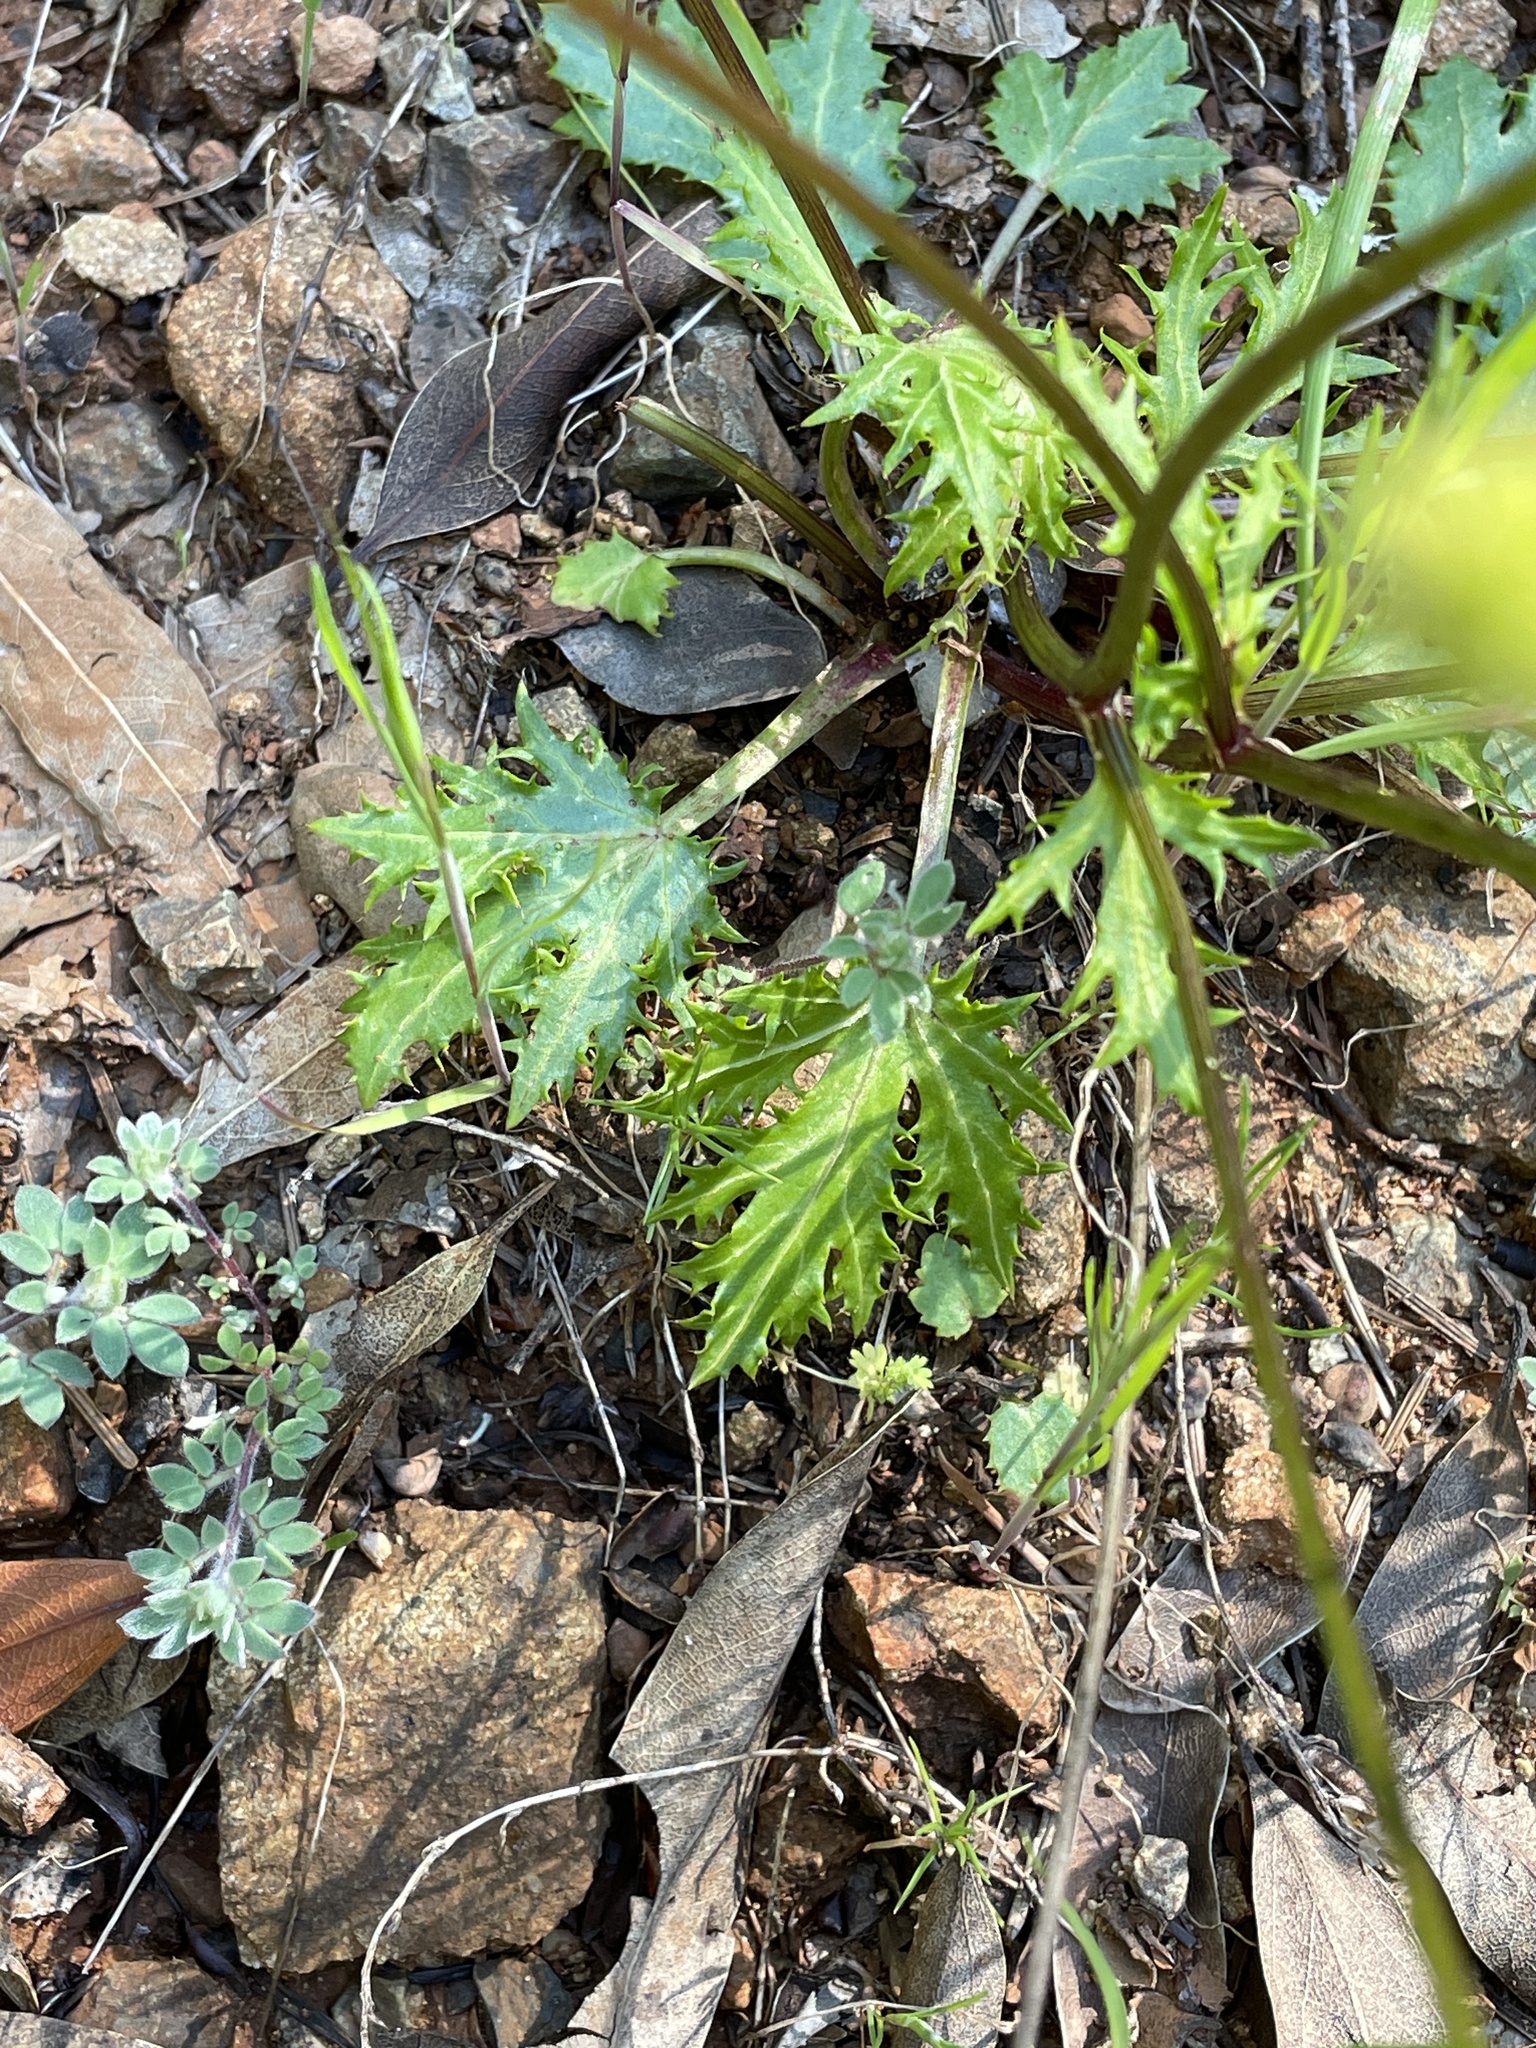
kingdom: Plantae
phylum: Tracheophyta
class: Magnoliopsida
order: Apiales
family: Apiaceae
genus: Sanicula
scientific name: Sanicula laciniata
